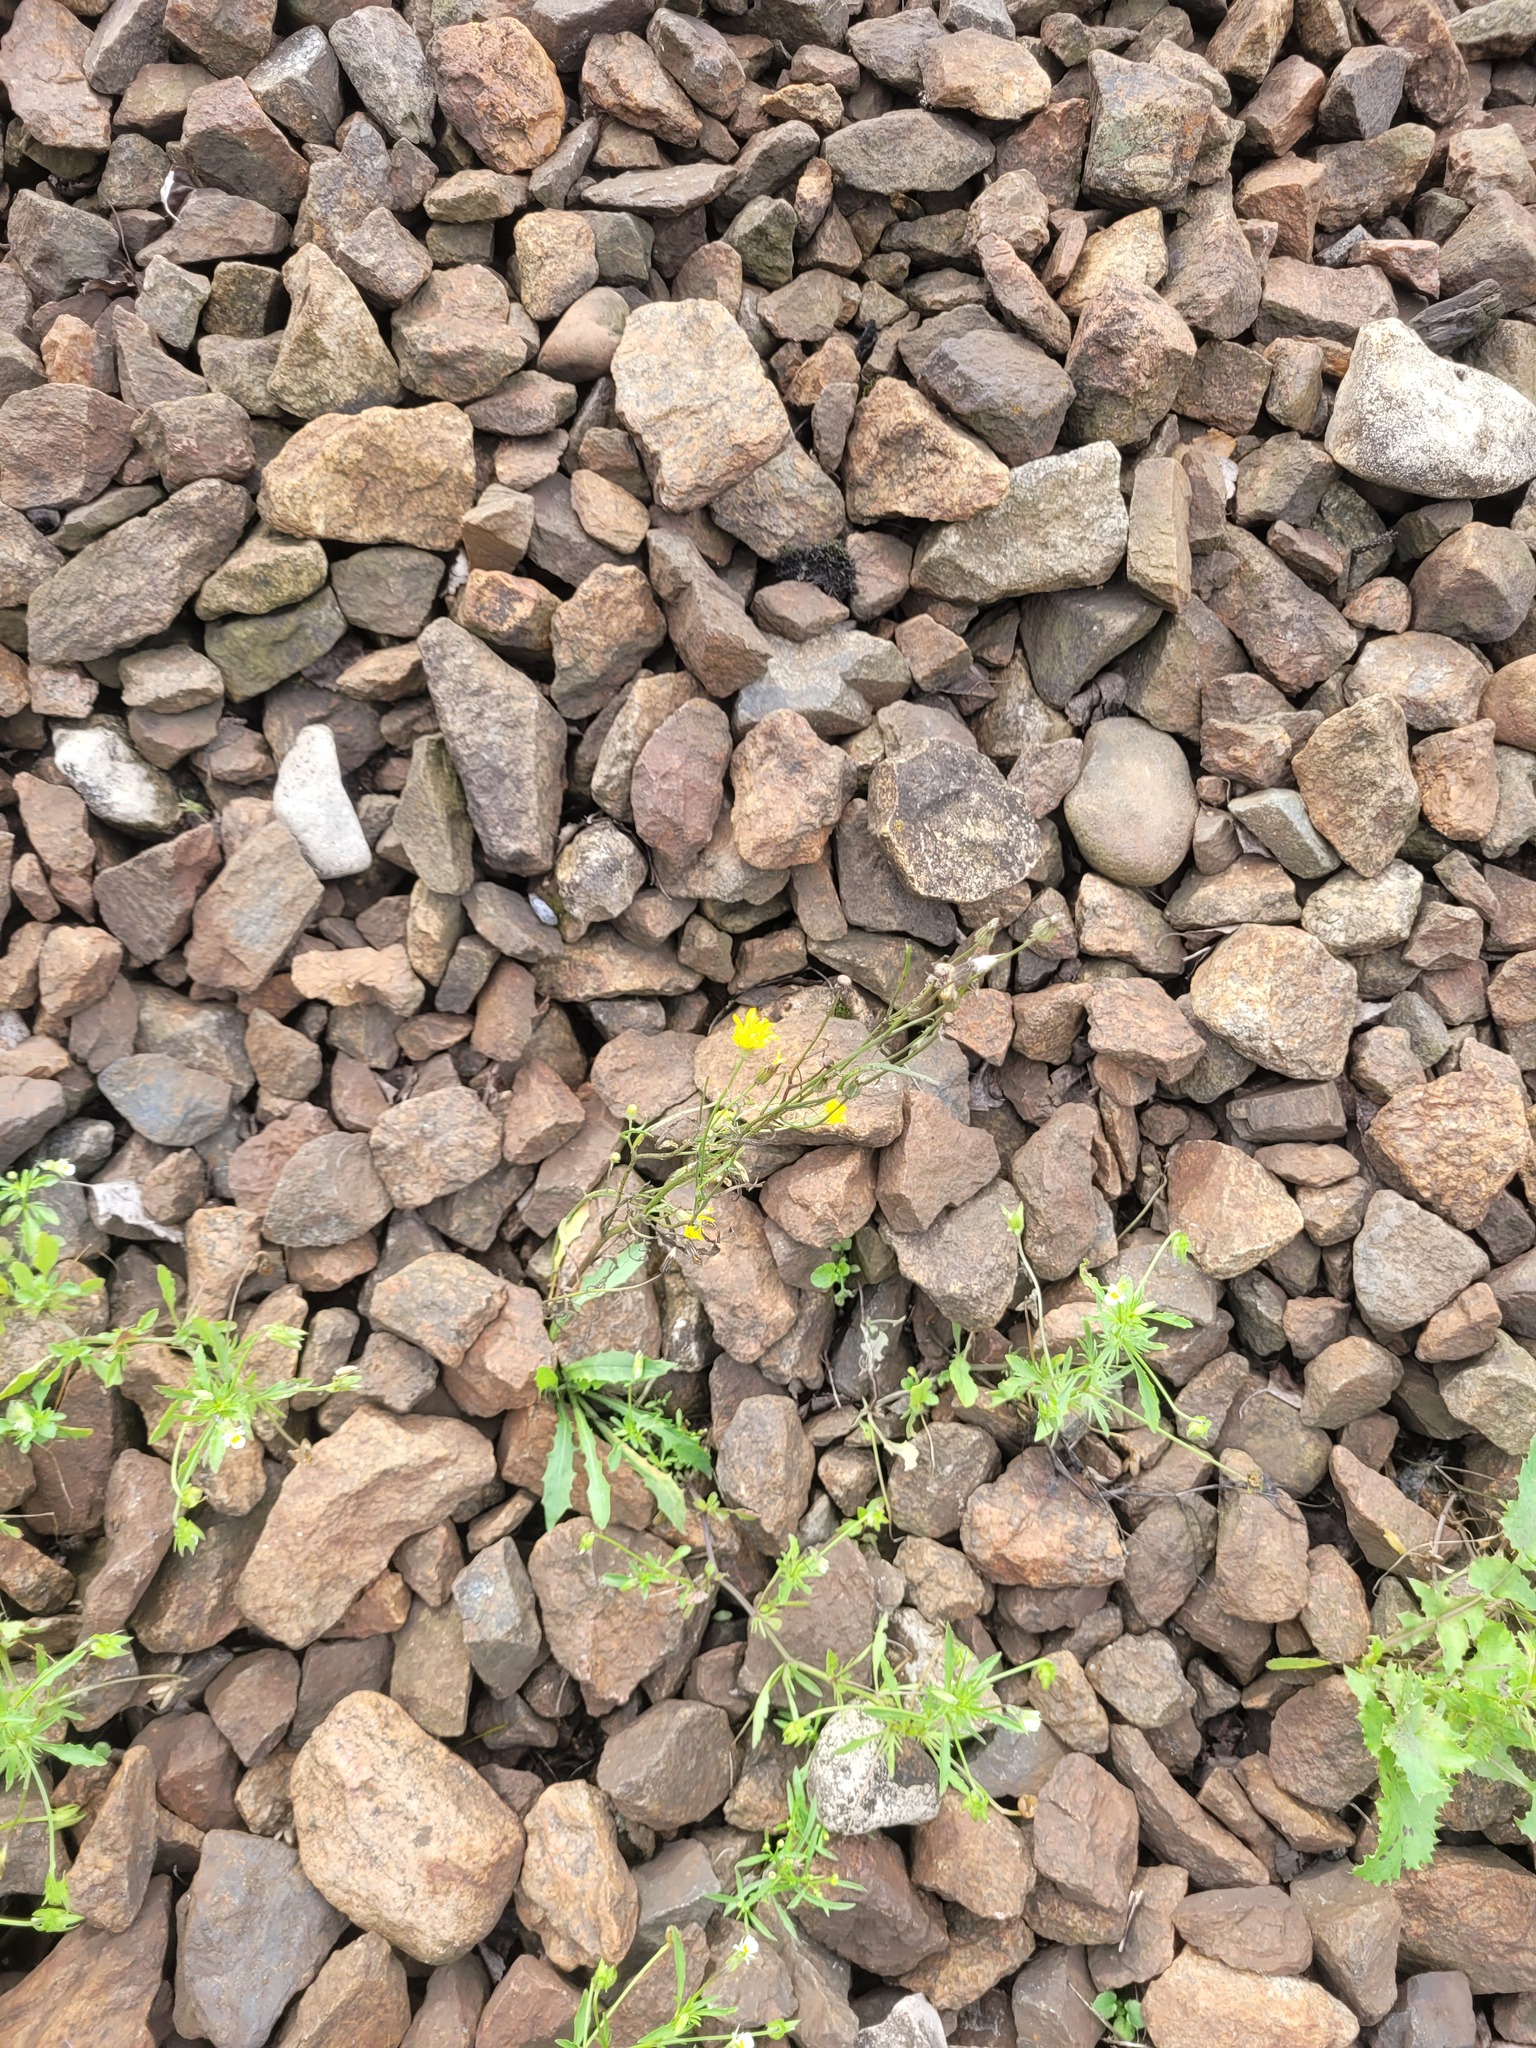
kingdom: Plantae
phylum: Tracheophyta
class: Magnoliopsida
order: Asterales
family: Asteraceae
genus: Crepis
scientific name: Crepis tectorum
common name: Narrow-leaved hawk's-beard
